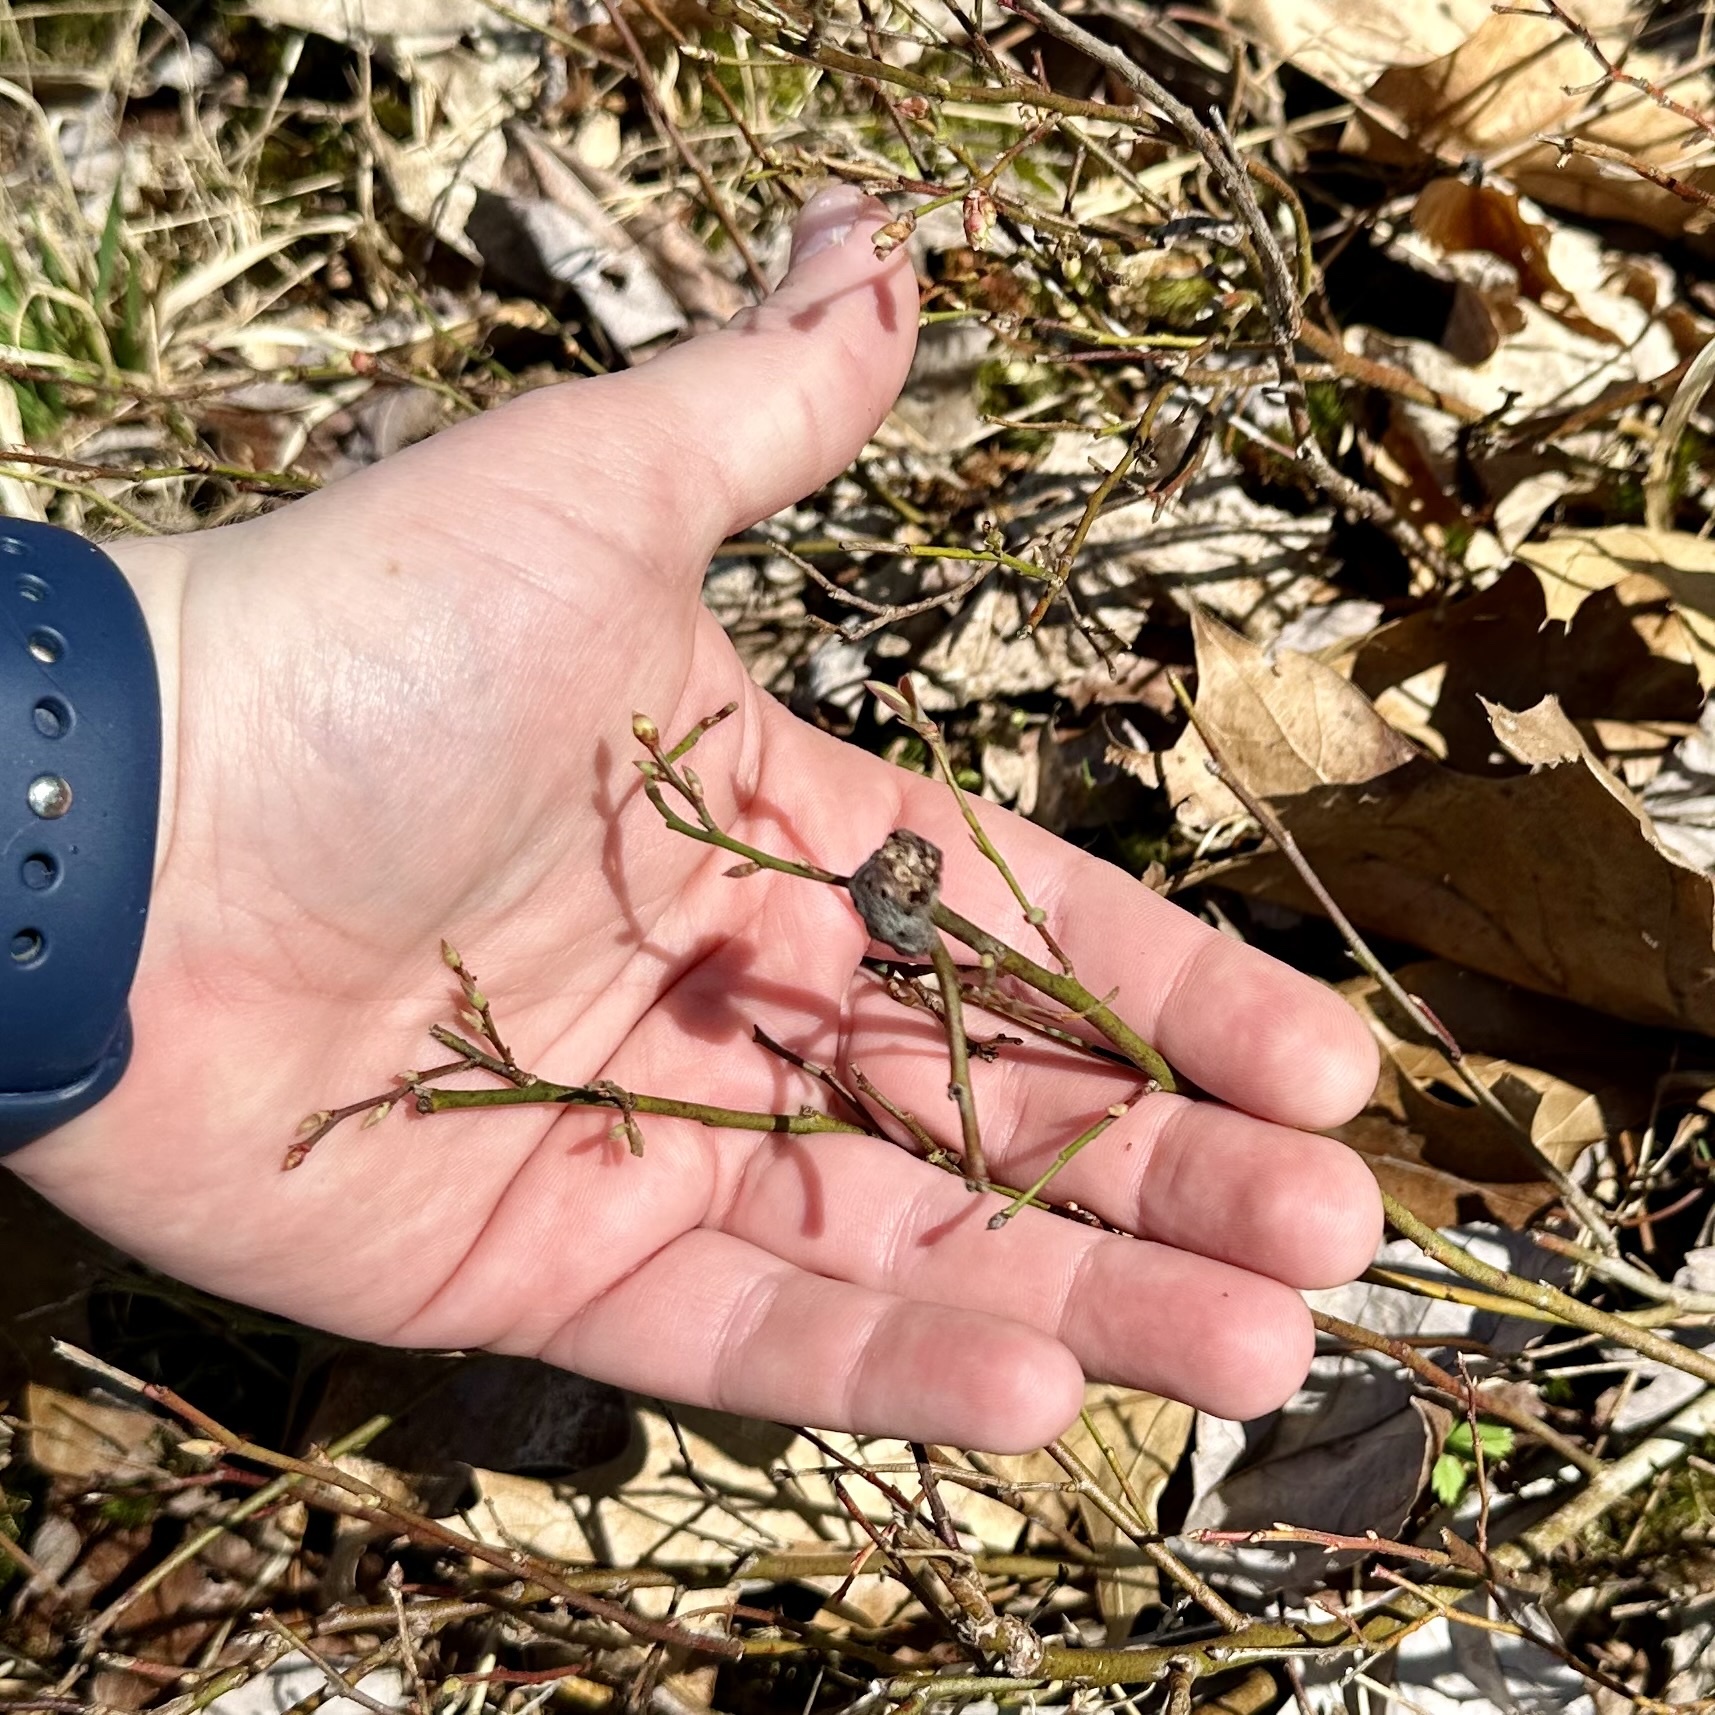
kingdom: Animalia
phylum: Arthropoda
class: Insecta
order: Hymenoptera
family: Pteromalidae
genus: Hemadas
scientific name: Hemadas nubilipennis
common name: Blueberry stem gall wasp
